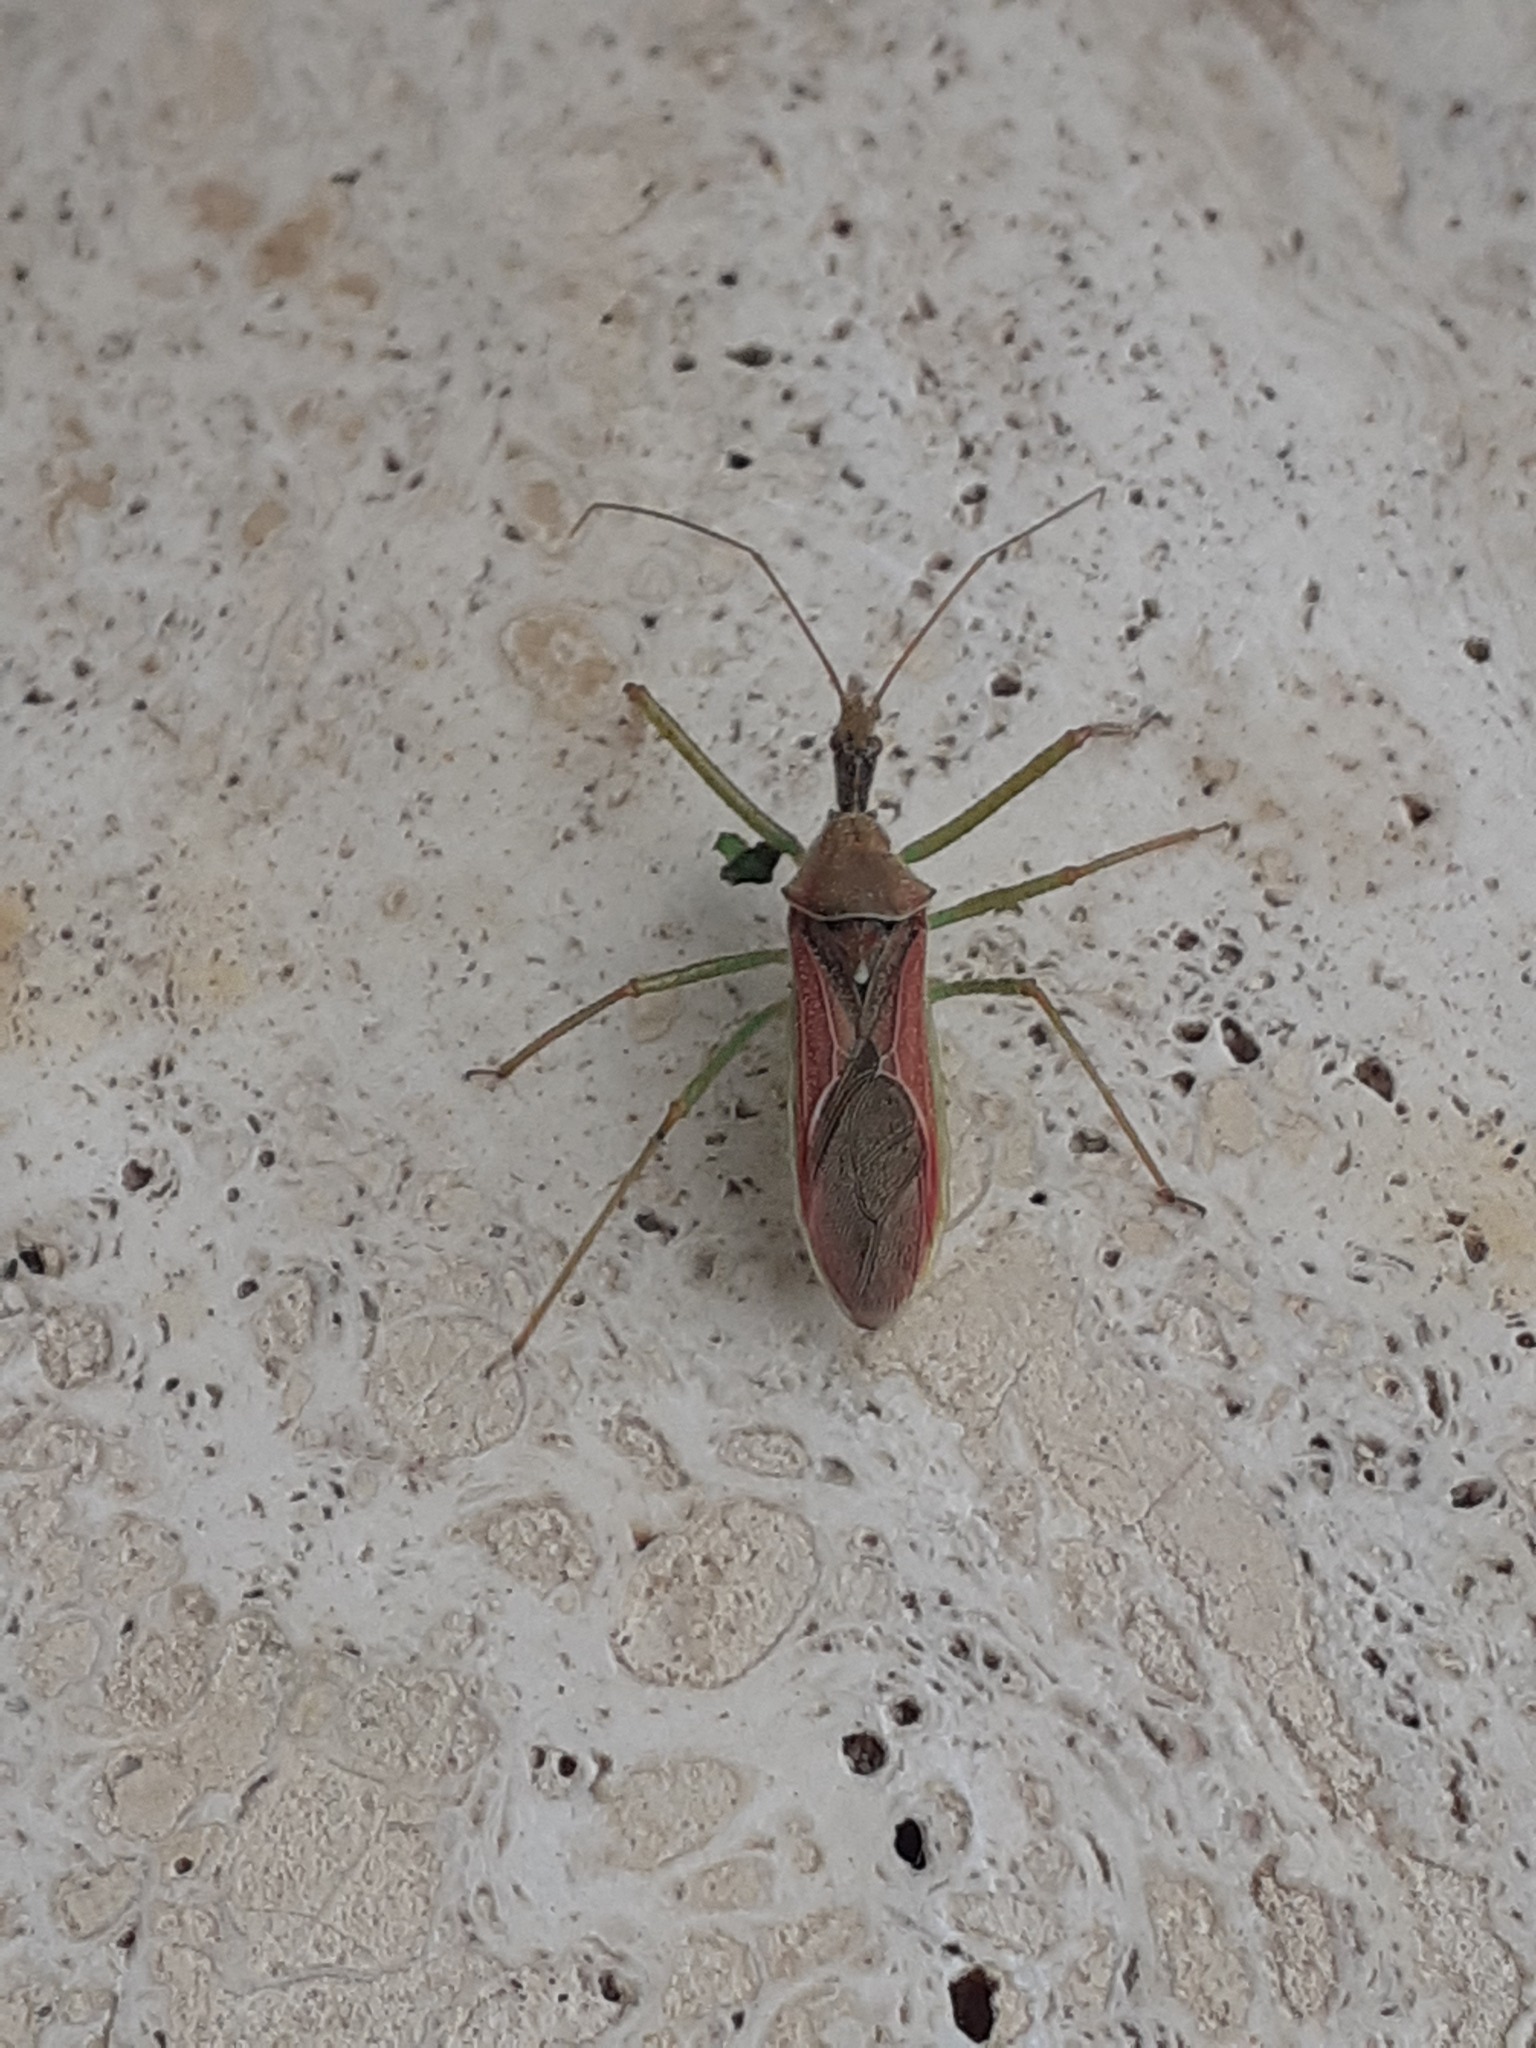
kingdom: Animalia
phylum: Arthropoda
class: Insecta
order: Hemiptera
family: Reduviidae
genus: Zelus
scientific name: Zelus renardii
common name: Assassin bug
